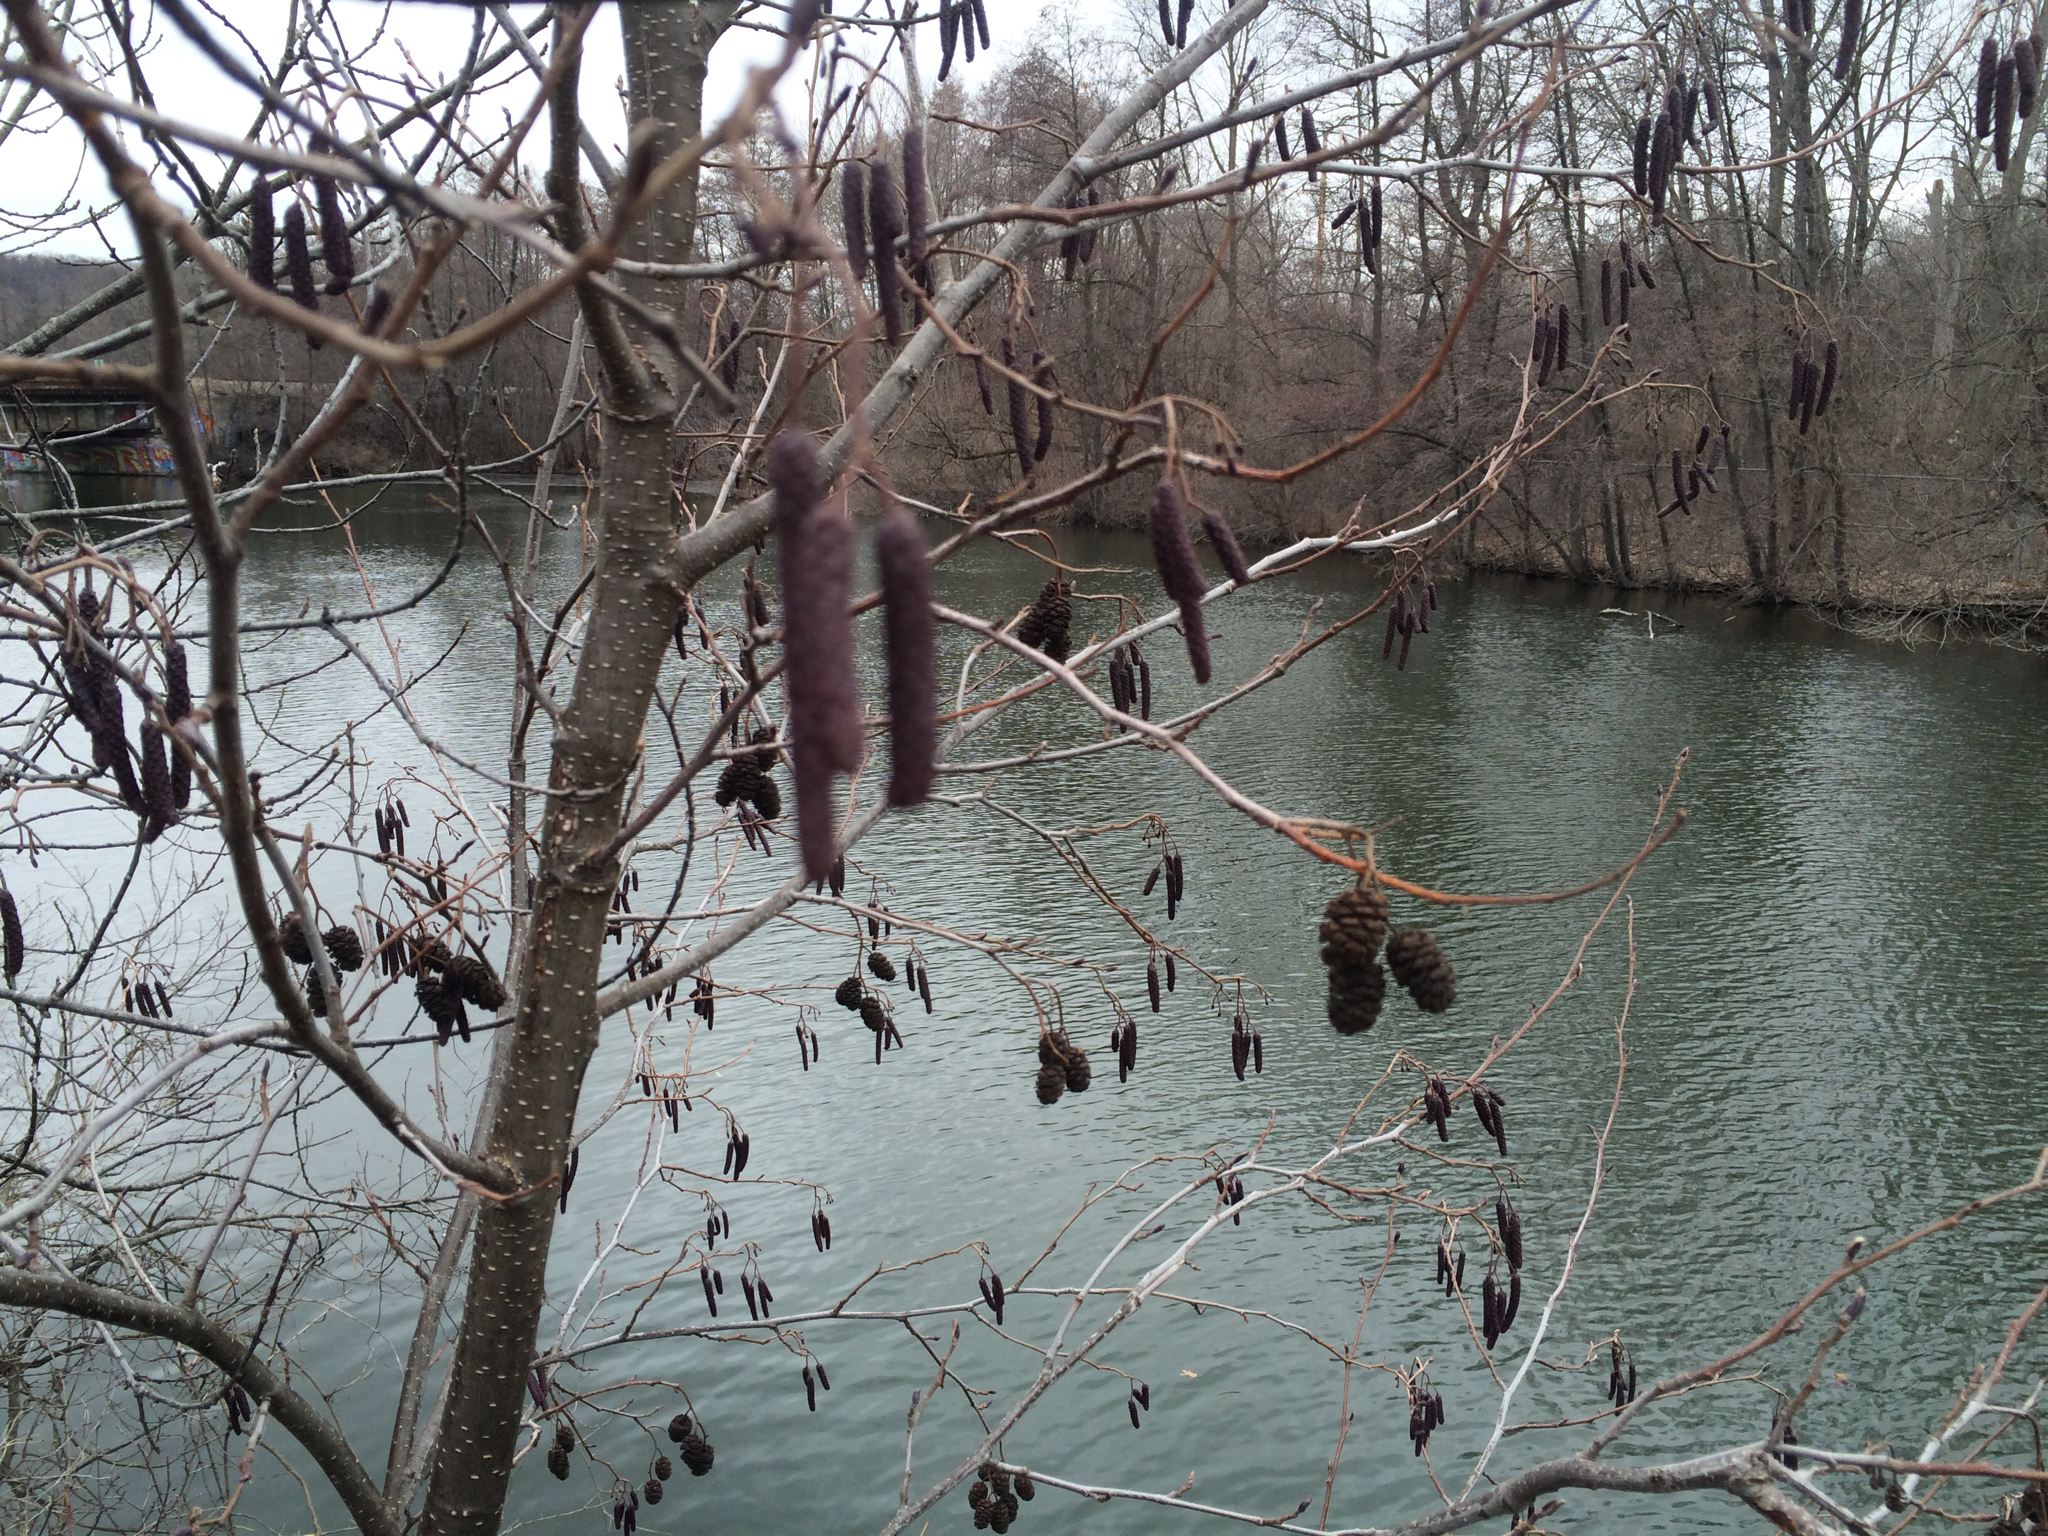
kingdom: Plantae
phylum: Tracheophyta
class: Magnoliopsida
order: Fagales
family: Betulaceae
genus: Alnus
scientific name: Alnus glutinosa
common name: Black alder
